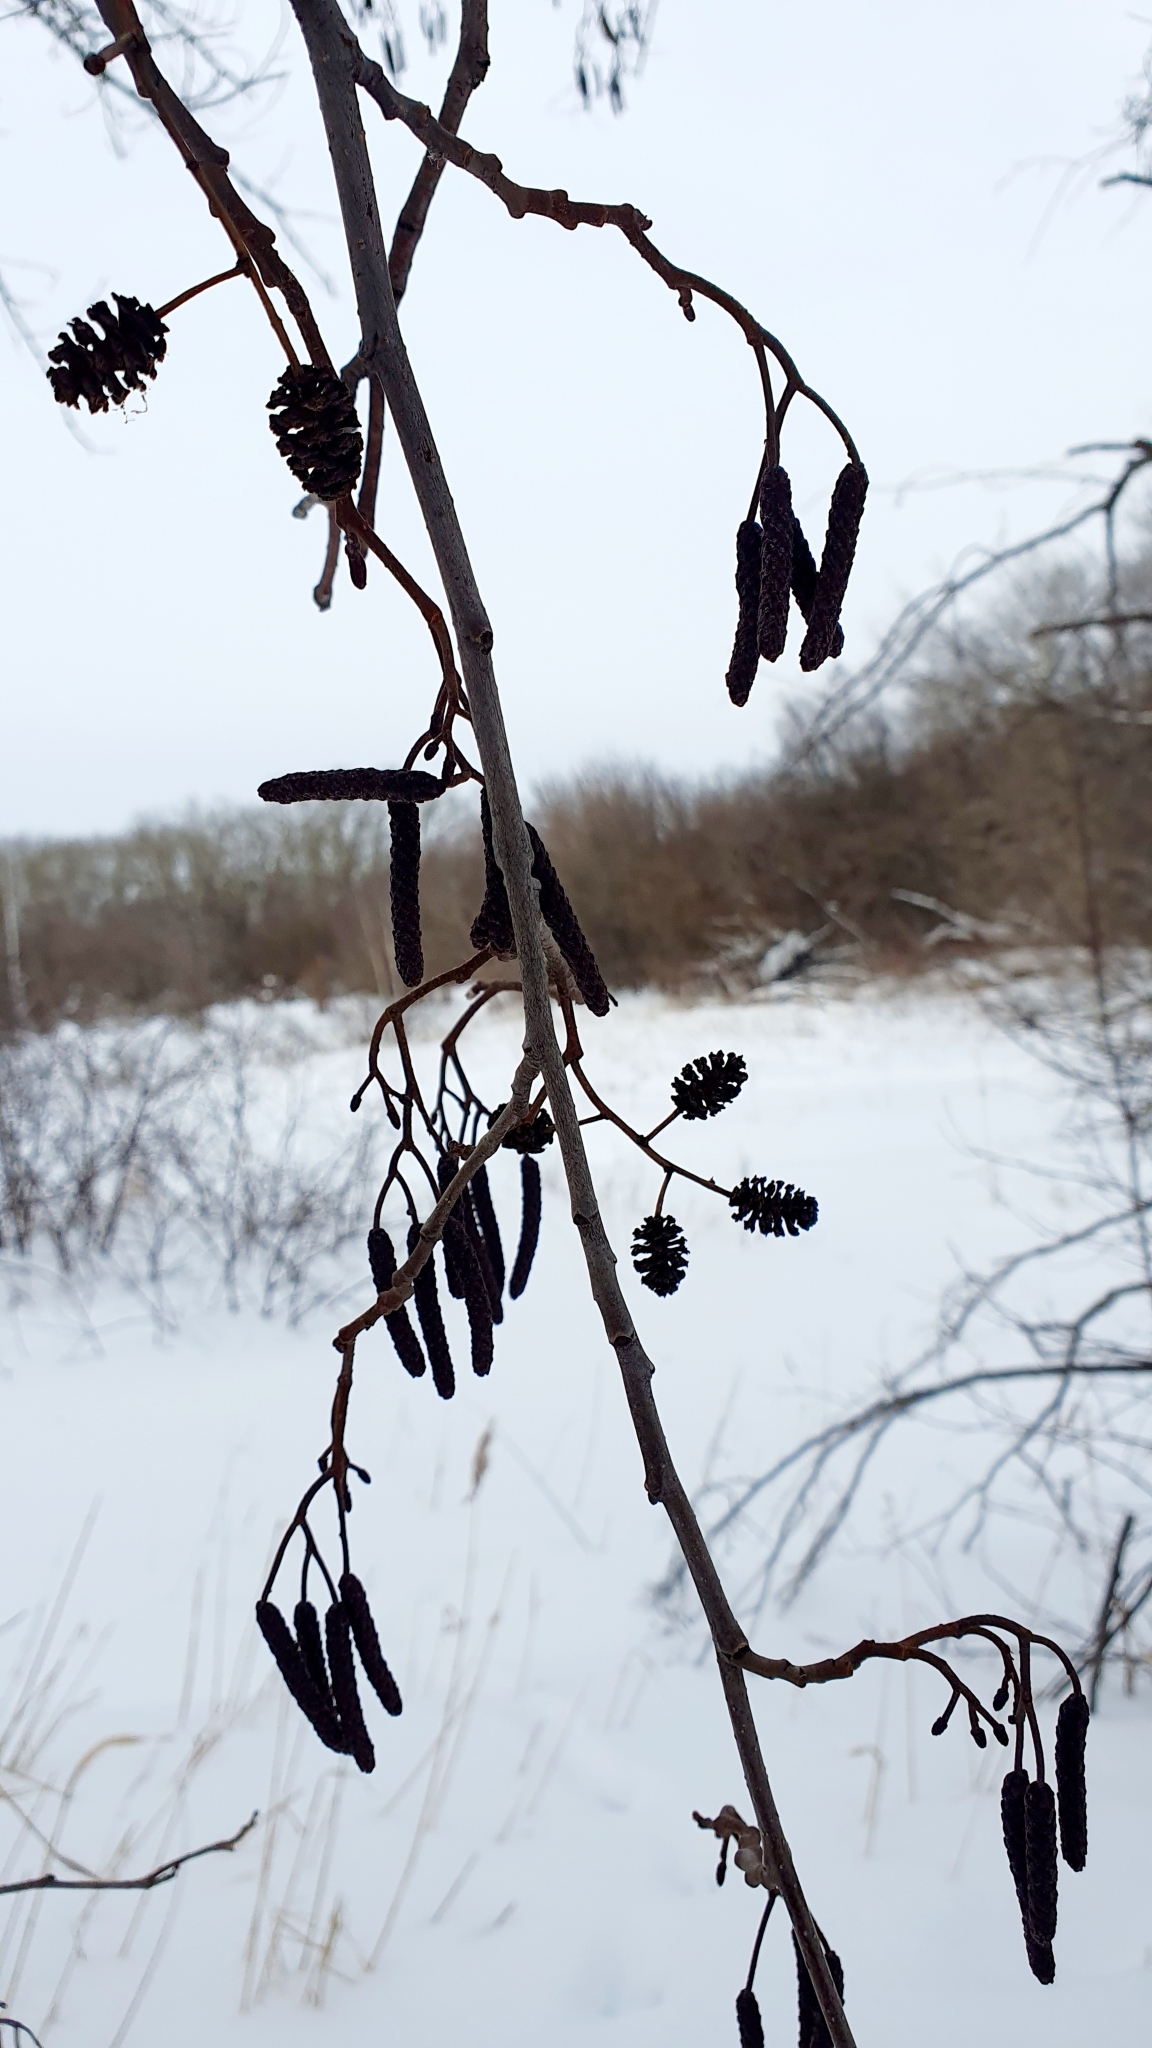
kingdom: Plantae
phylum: Tracheophyta
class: Magnoliopsida
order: Fagales
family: Betulaceae
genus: Alnus
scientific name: Alnus glutinosa
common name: Black alder
